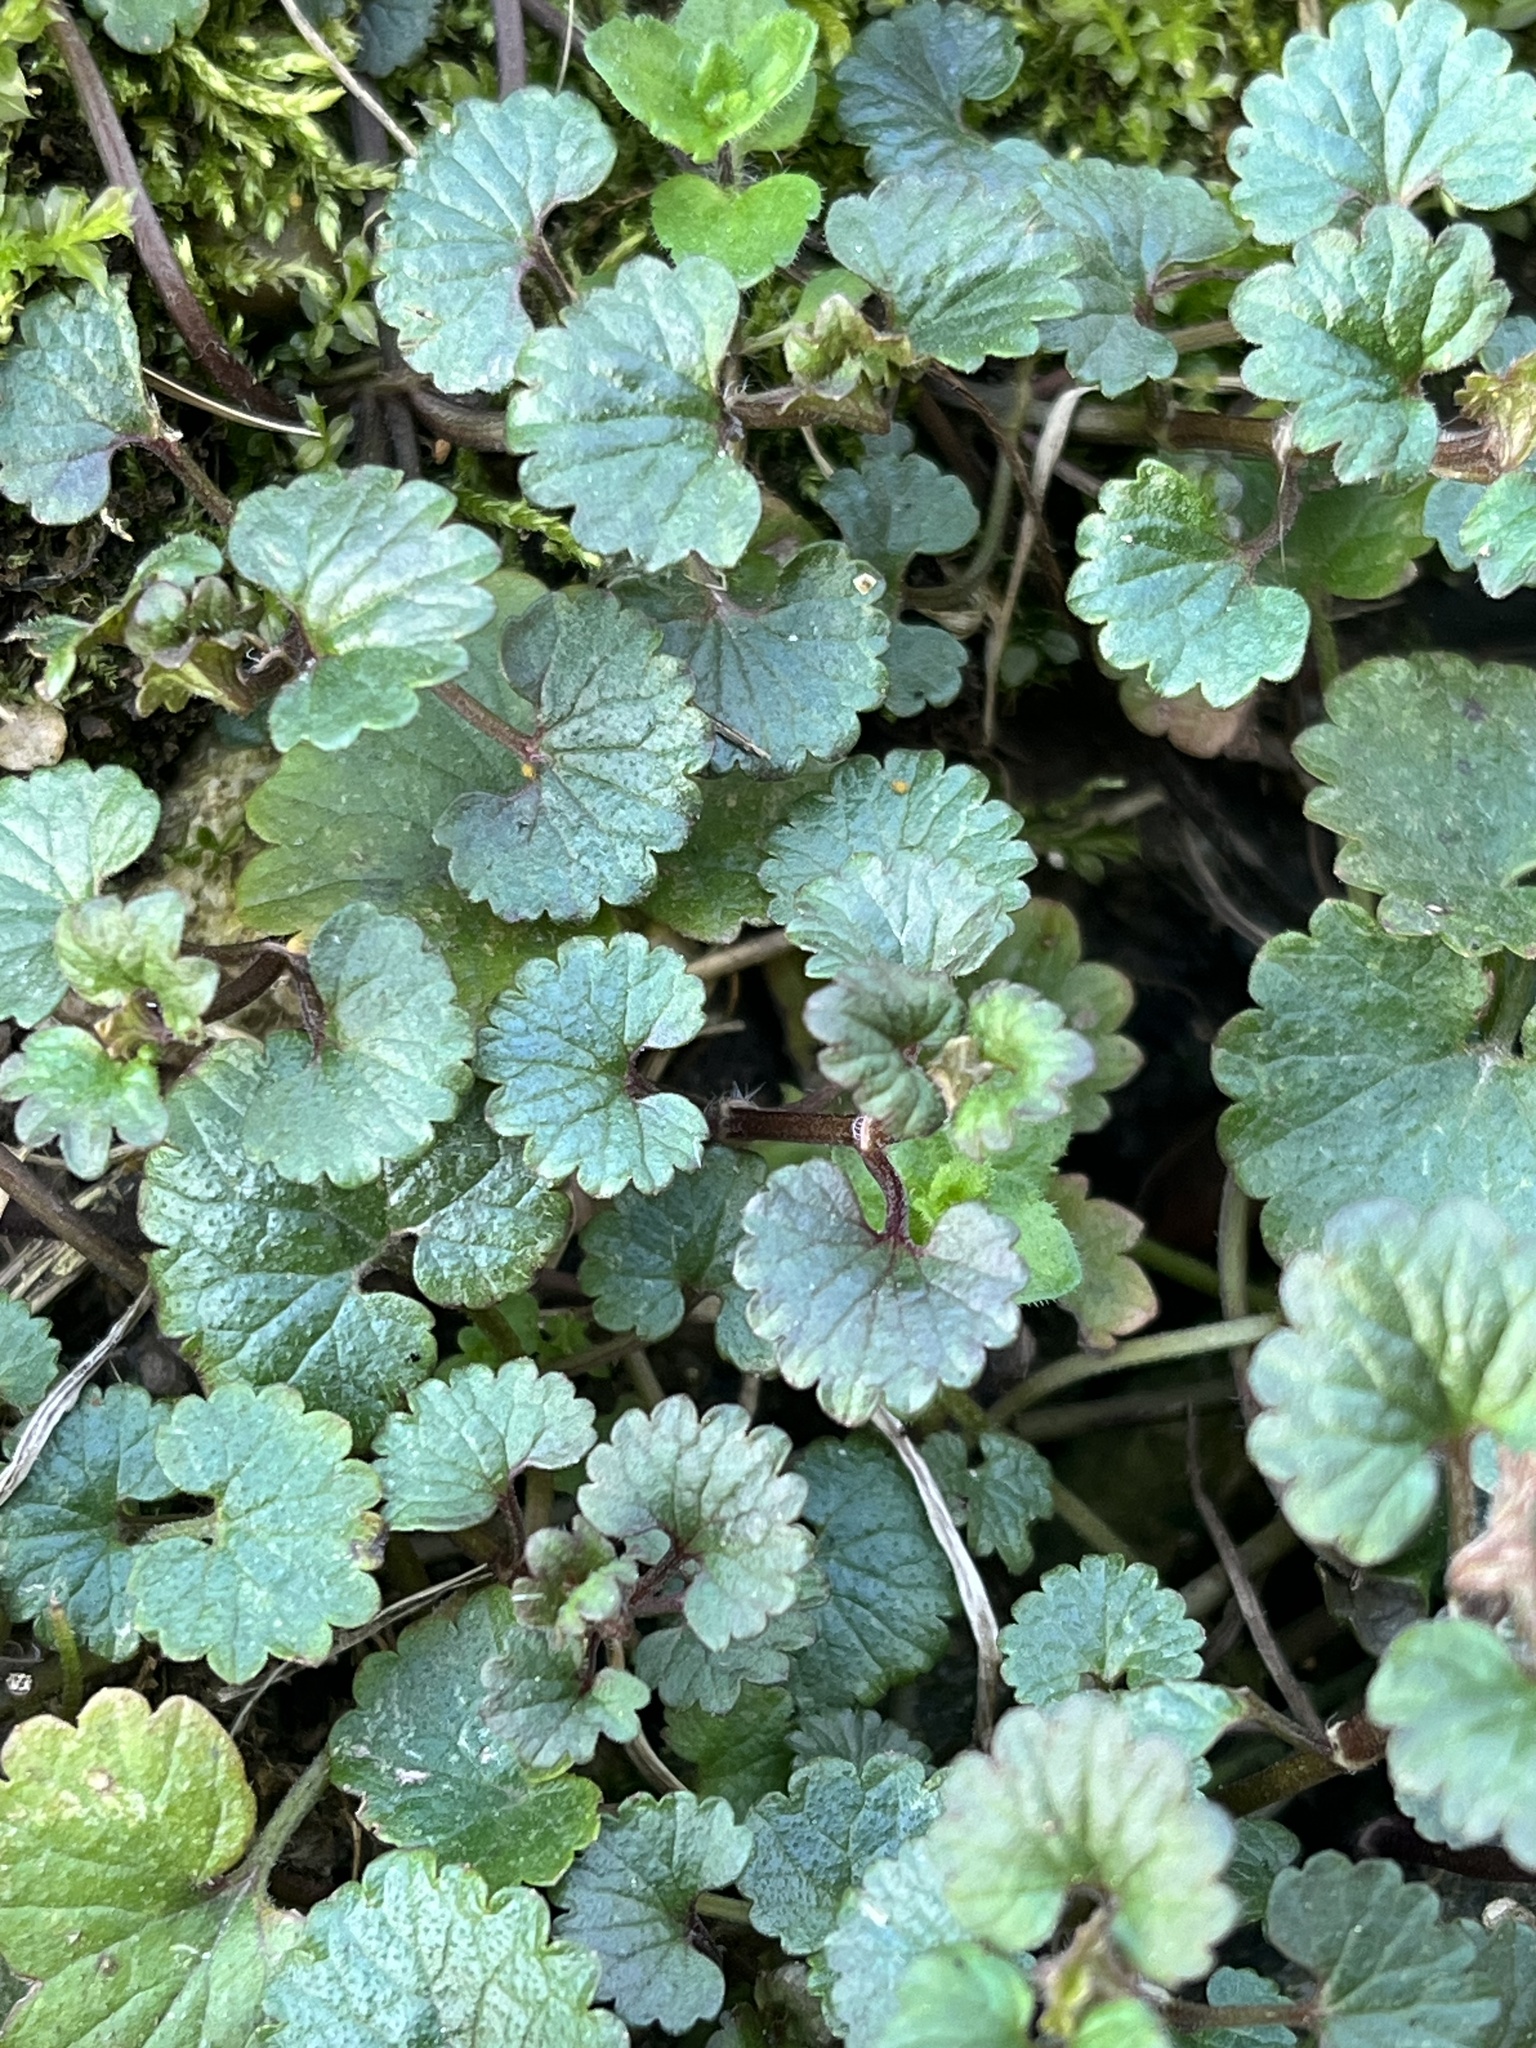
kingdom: Plantae
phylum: Tracheophyta
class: Magnoliopsida
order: Lamiales
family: Lamiaceae
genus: Glechoma
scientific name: Glechoma hederacea
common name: Ground ivy
